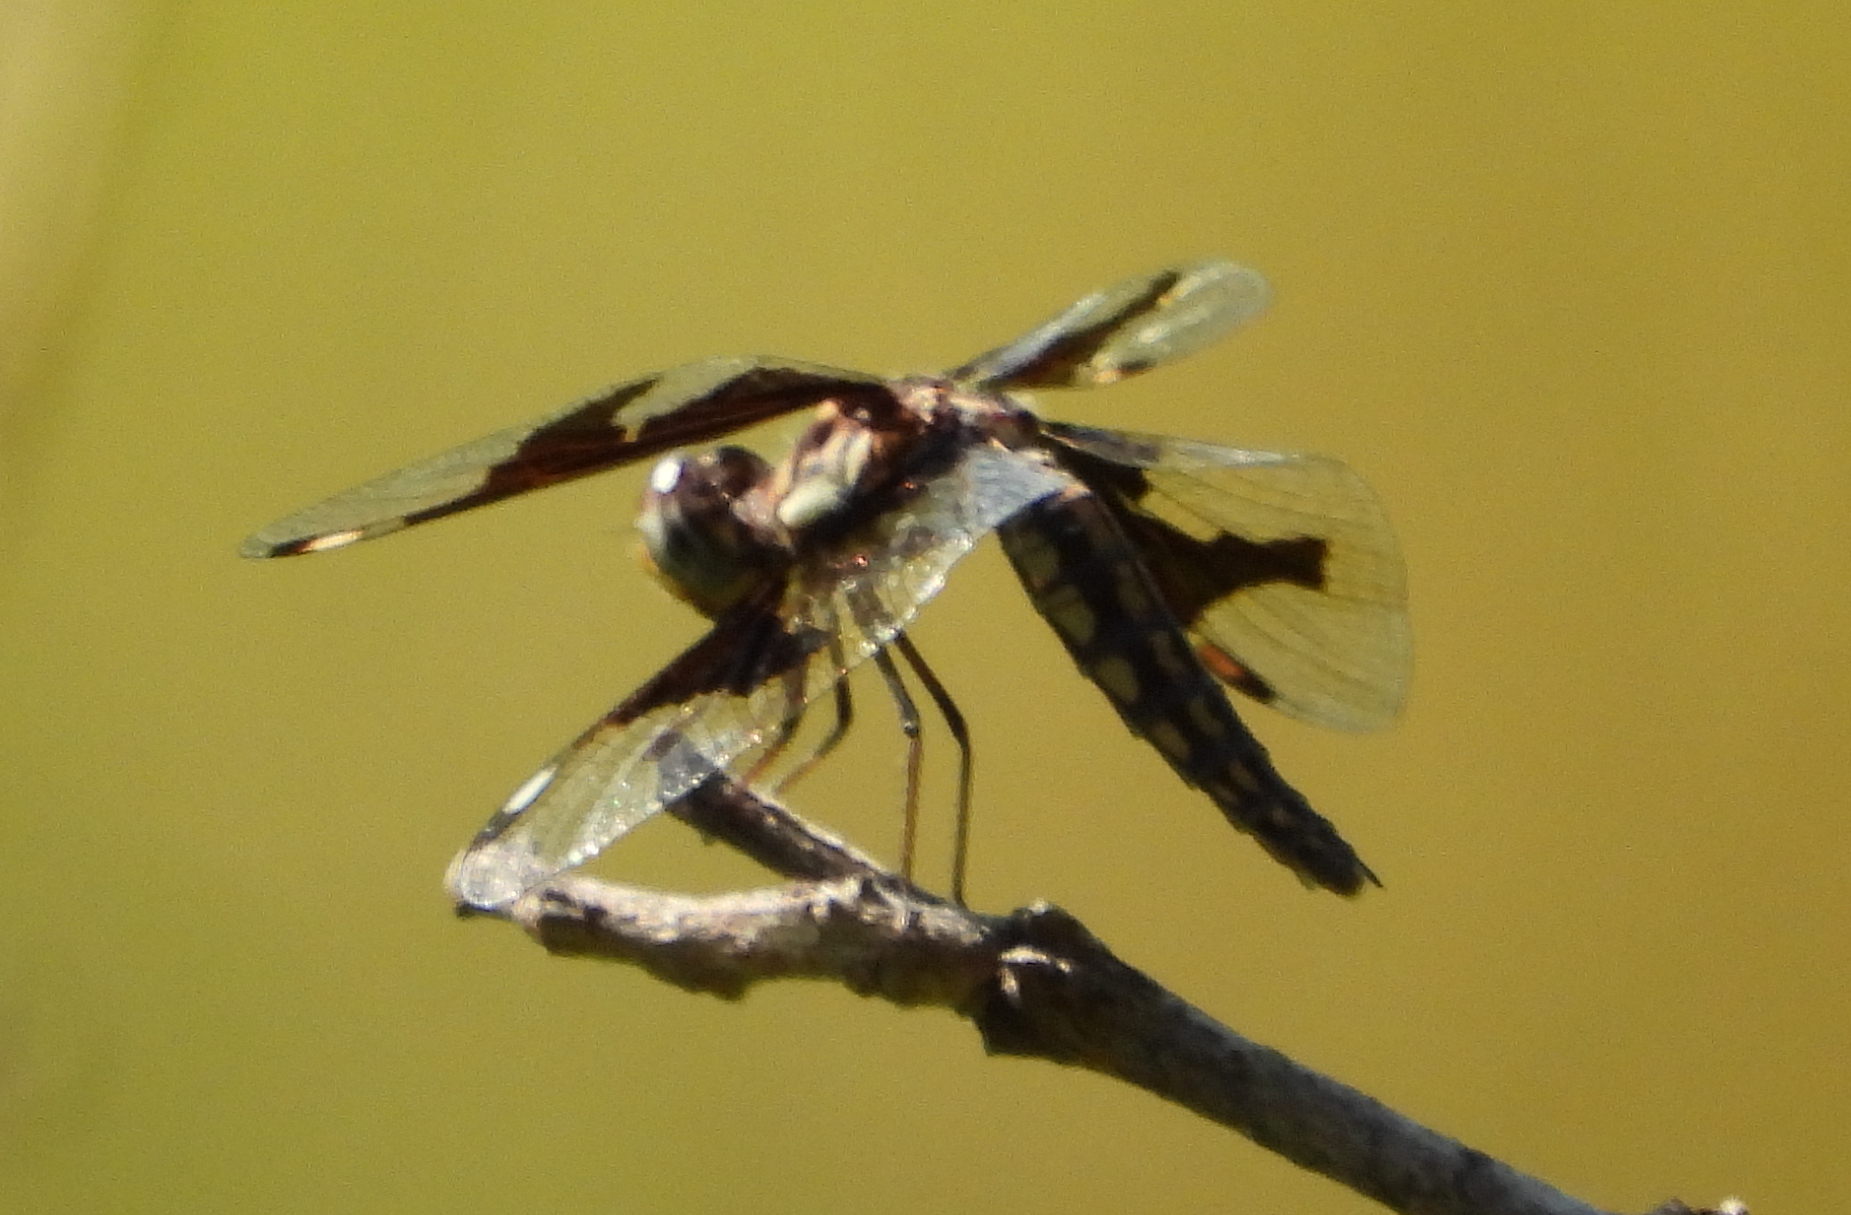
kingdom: Animalia
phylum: Arthropoda
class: Insecta
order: Odonata
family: Libellulidae
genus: Palpopleura
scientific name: Palpopleura lucia
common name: Lucia widow
